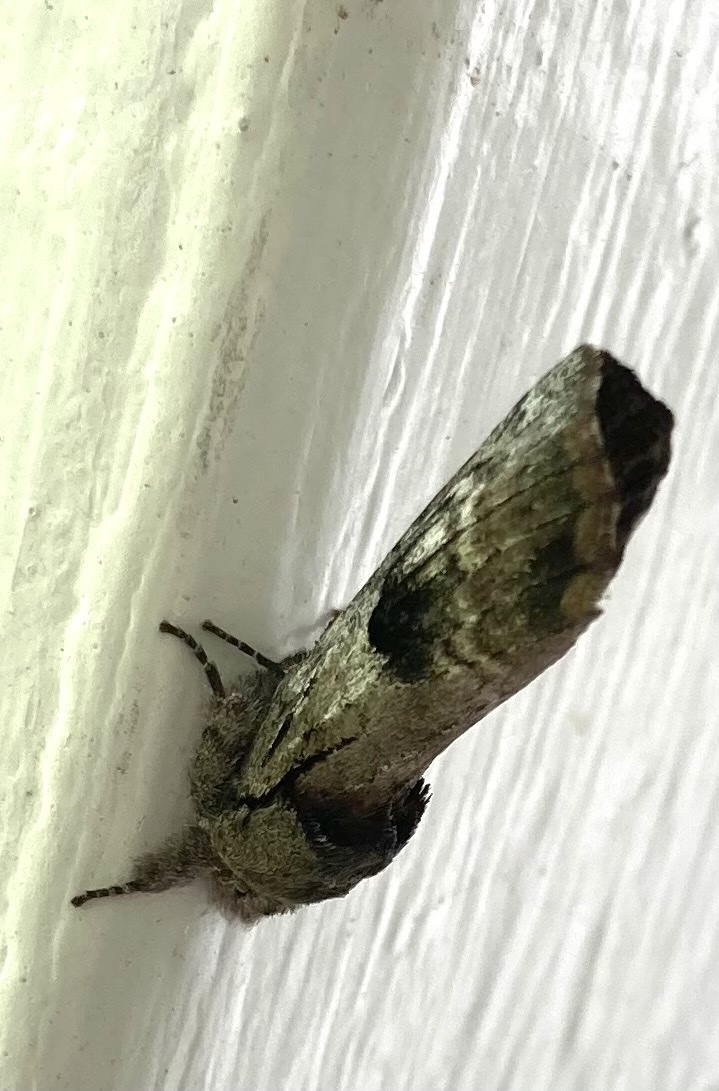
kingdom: Animalia
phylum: Arthropoda
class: Insecta
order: Lepidoptera
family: Notodontidae
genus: Schizura
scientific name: Schizura
